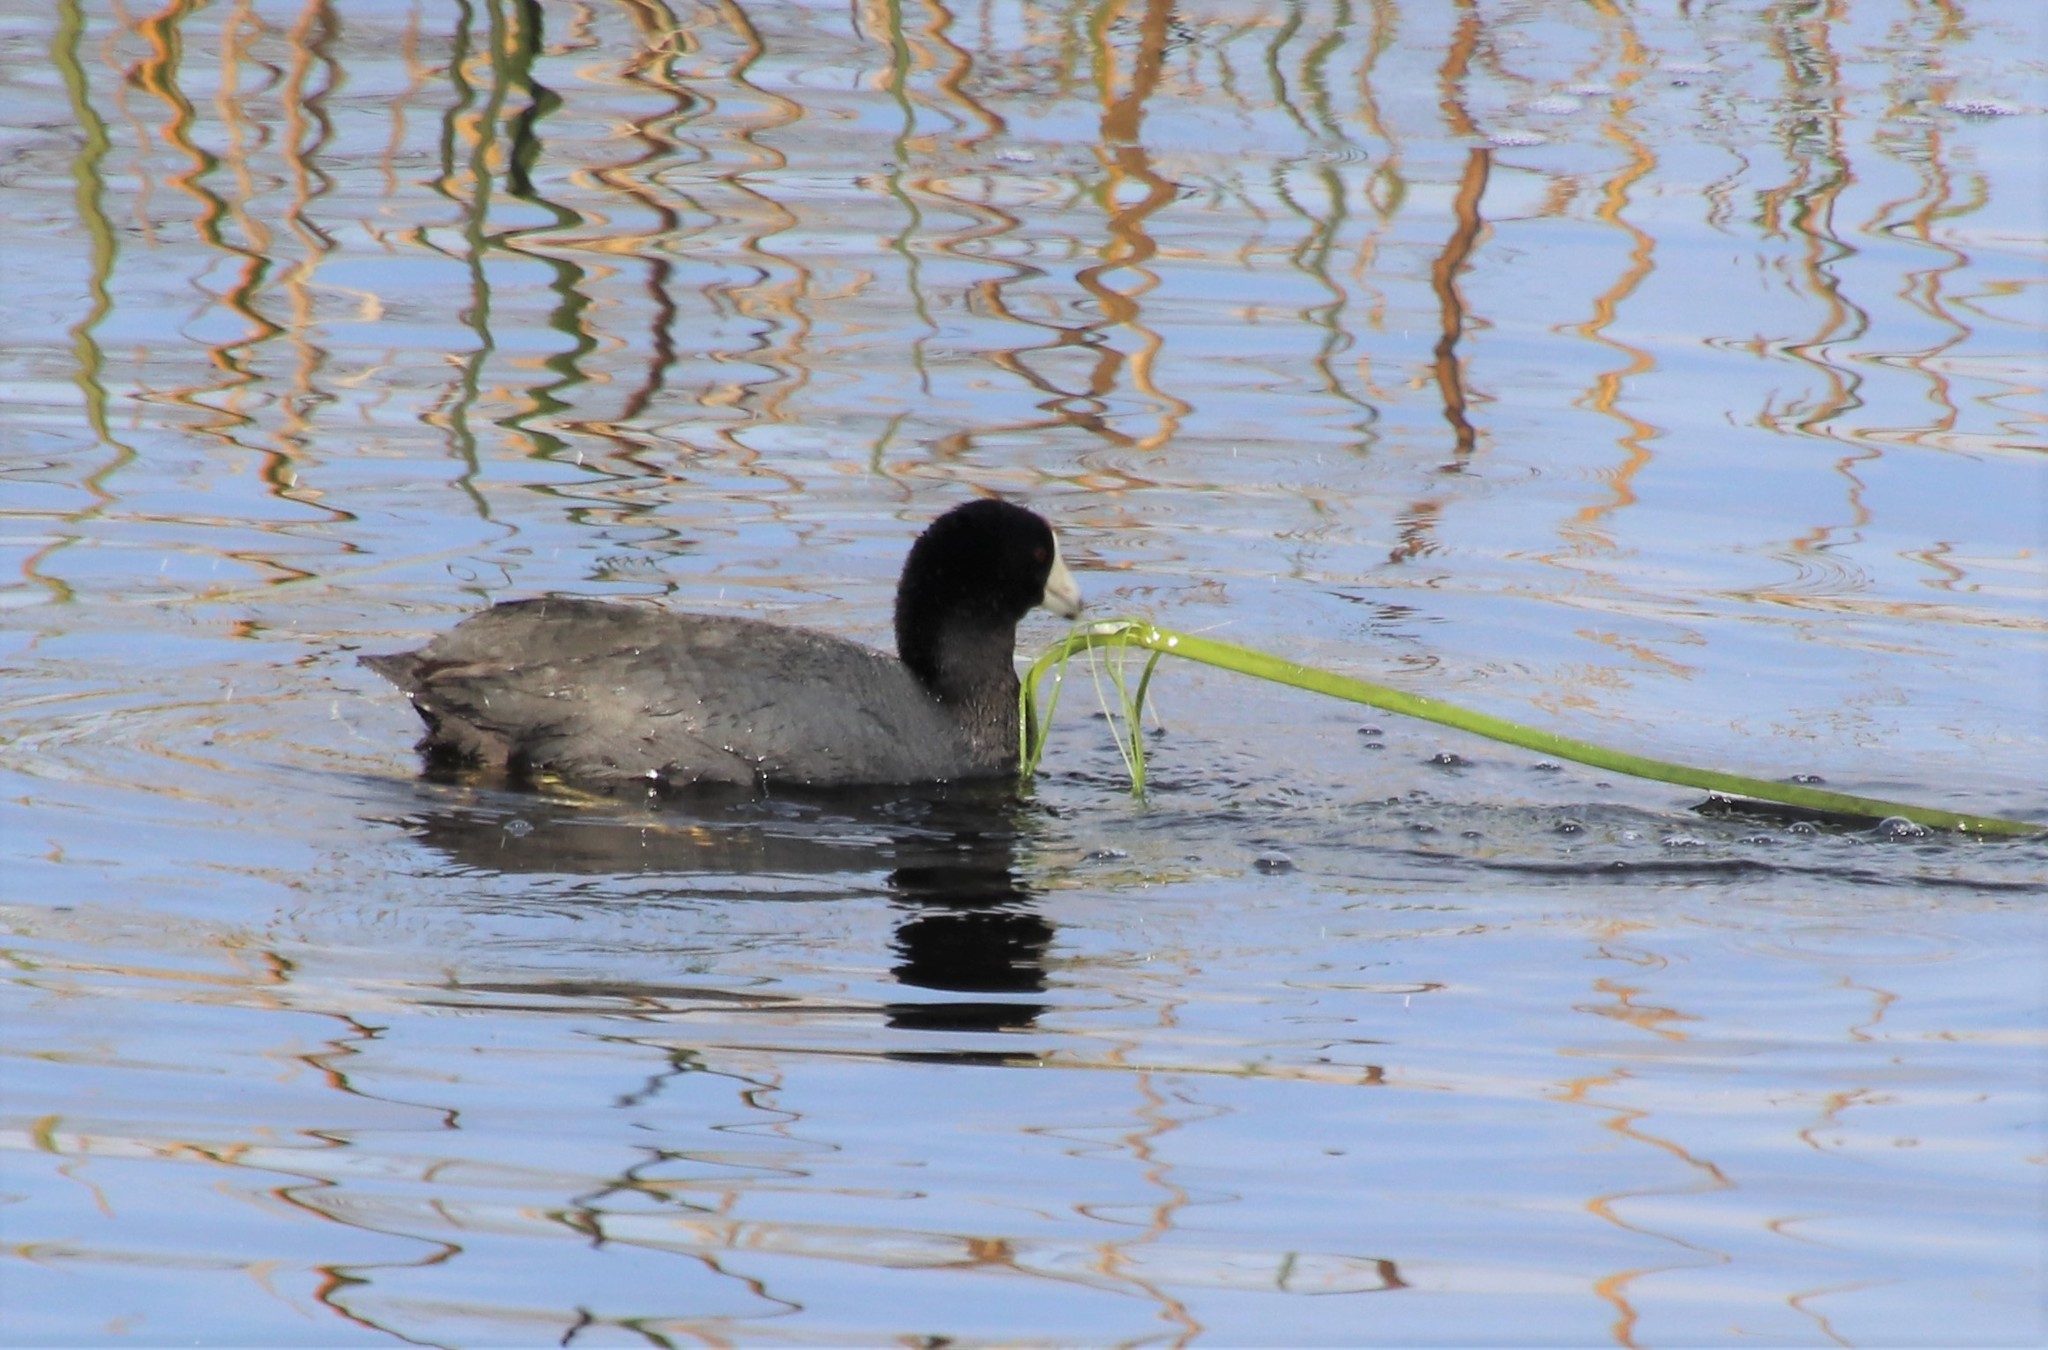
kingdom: Animalia
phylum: Chordata
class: Aves
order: Gruiformes
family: Rallidae
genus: Fulica
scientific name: Fulica americana
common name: American coot
